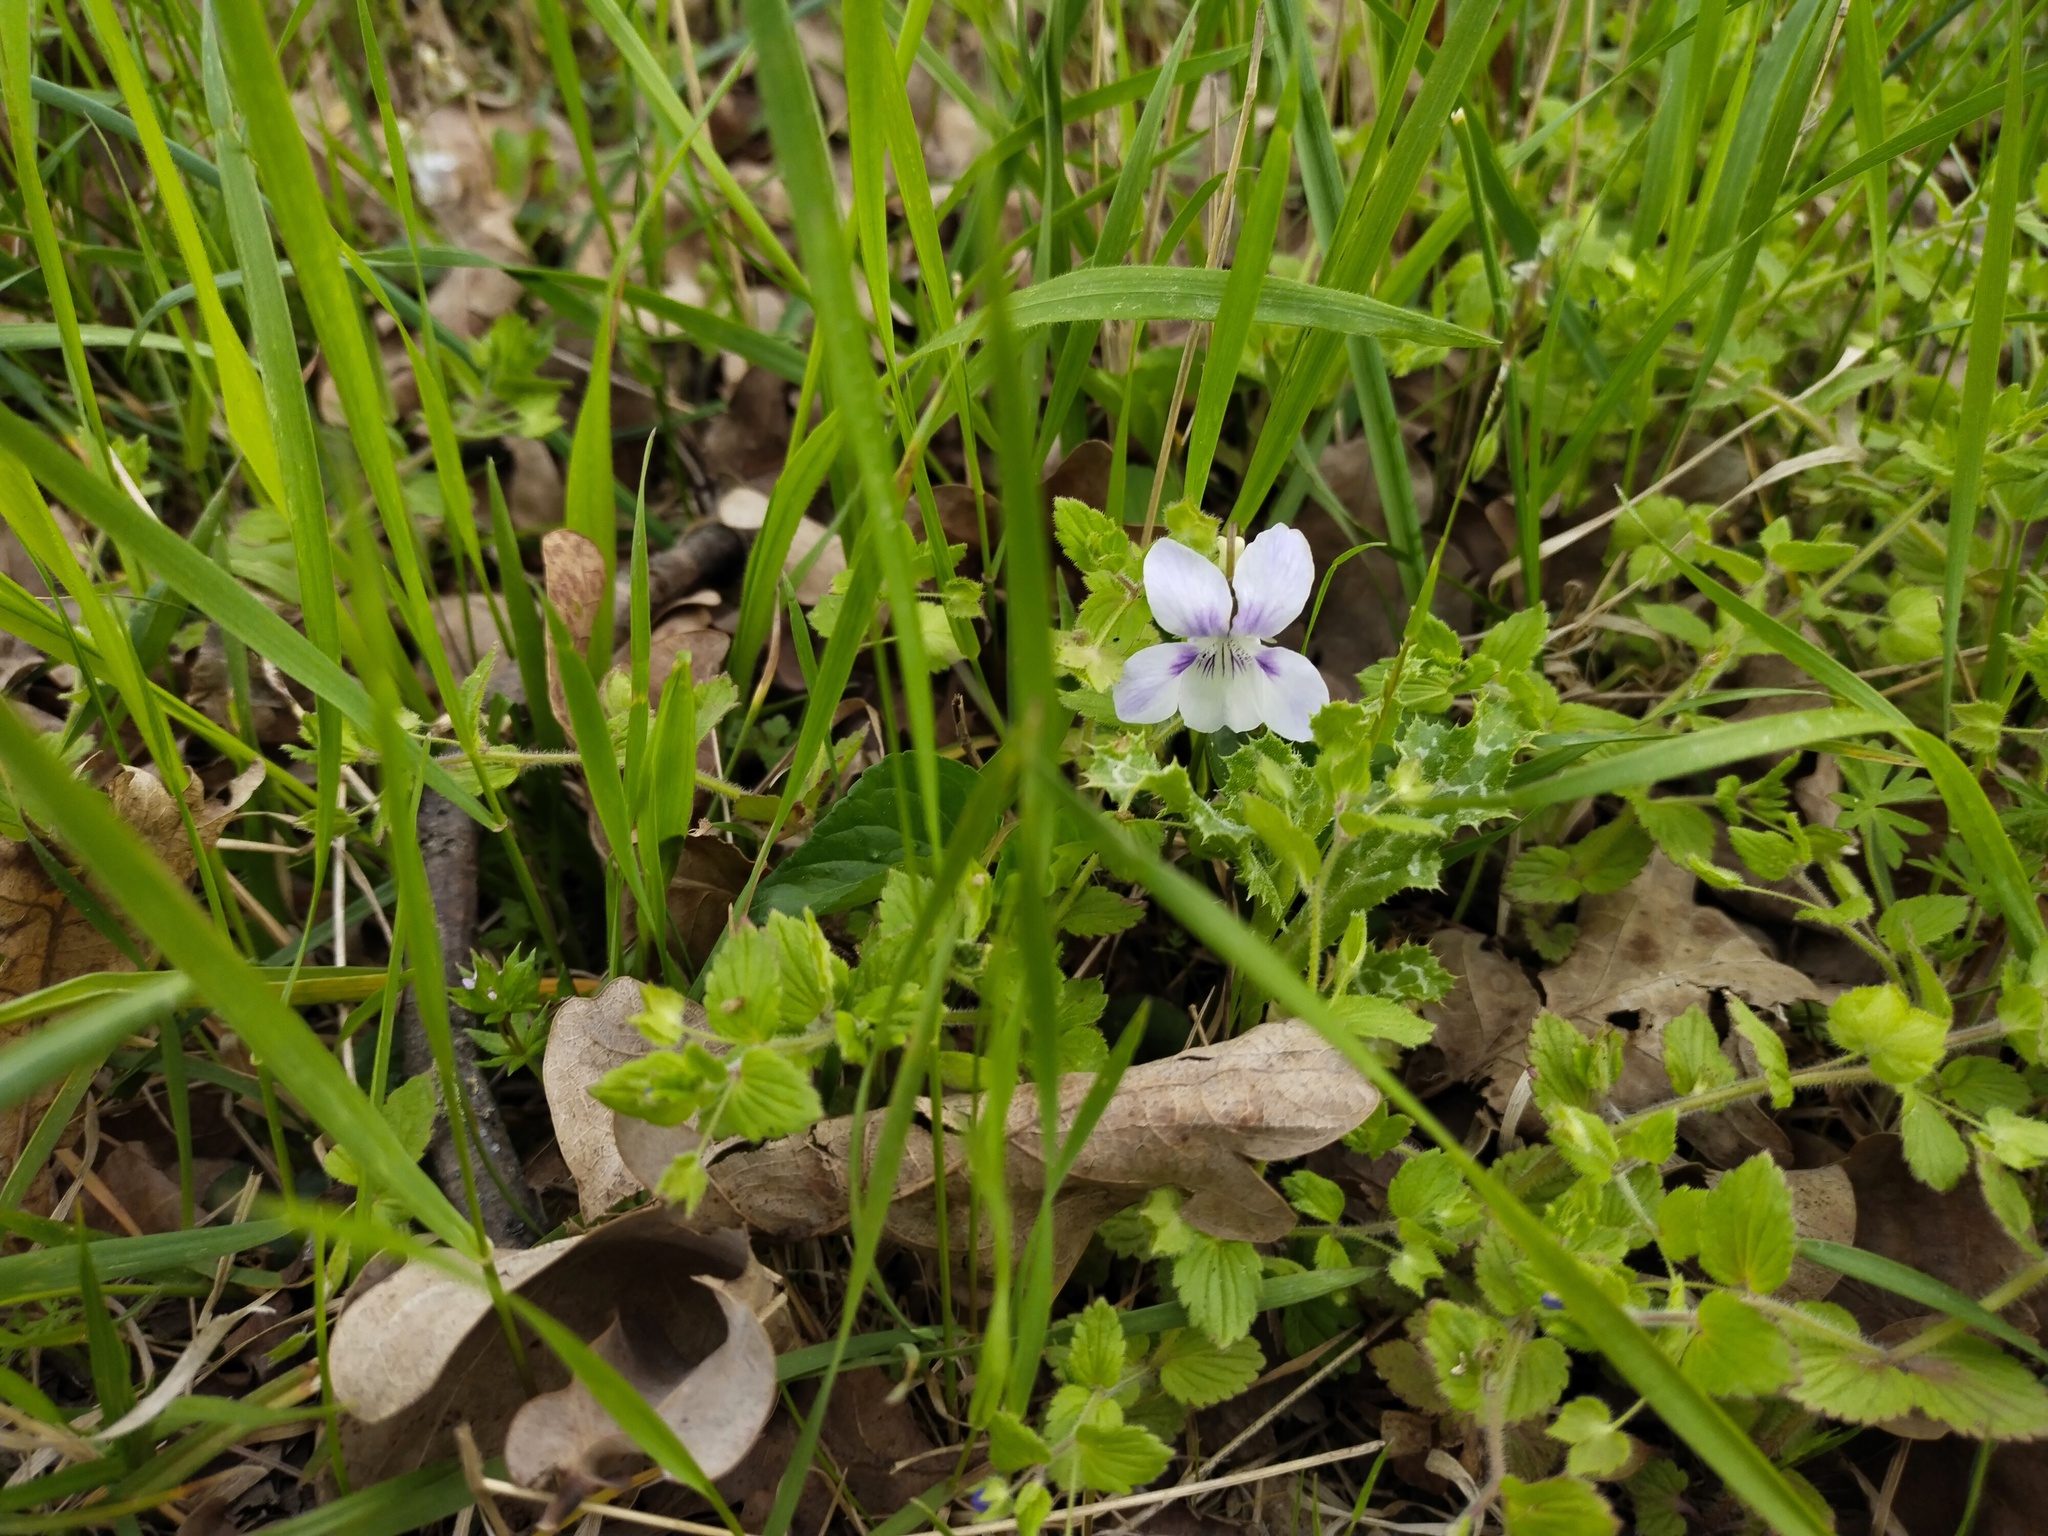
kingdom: Plantae
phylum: Tracheophyta
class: Magnoliopsida
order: Malpighiales
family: Violaceae
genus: Viola
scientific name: Viola sieheana
